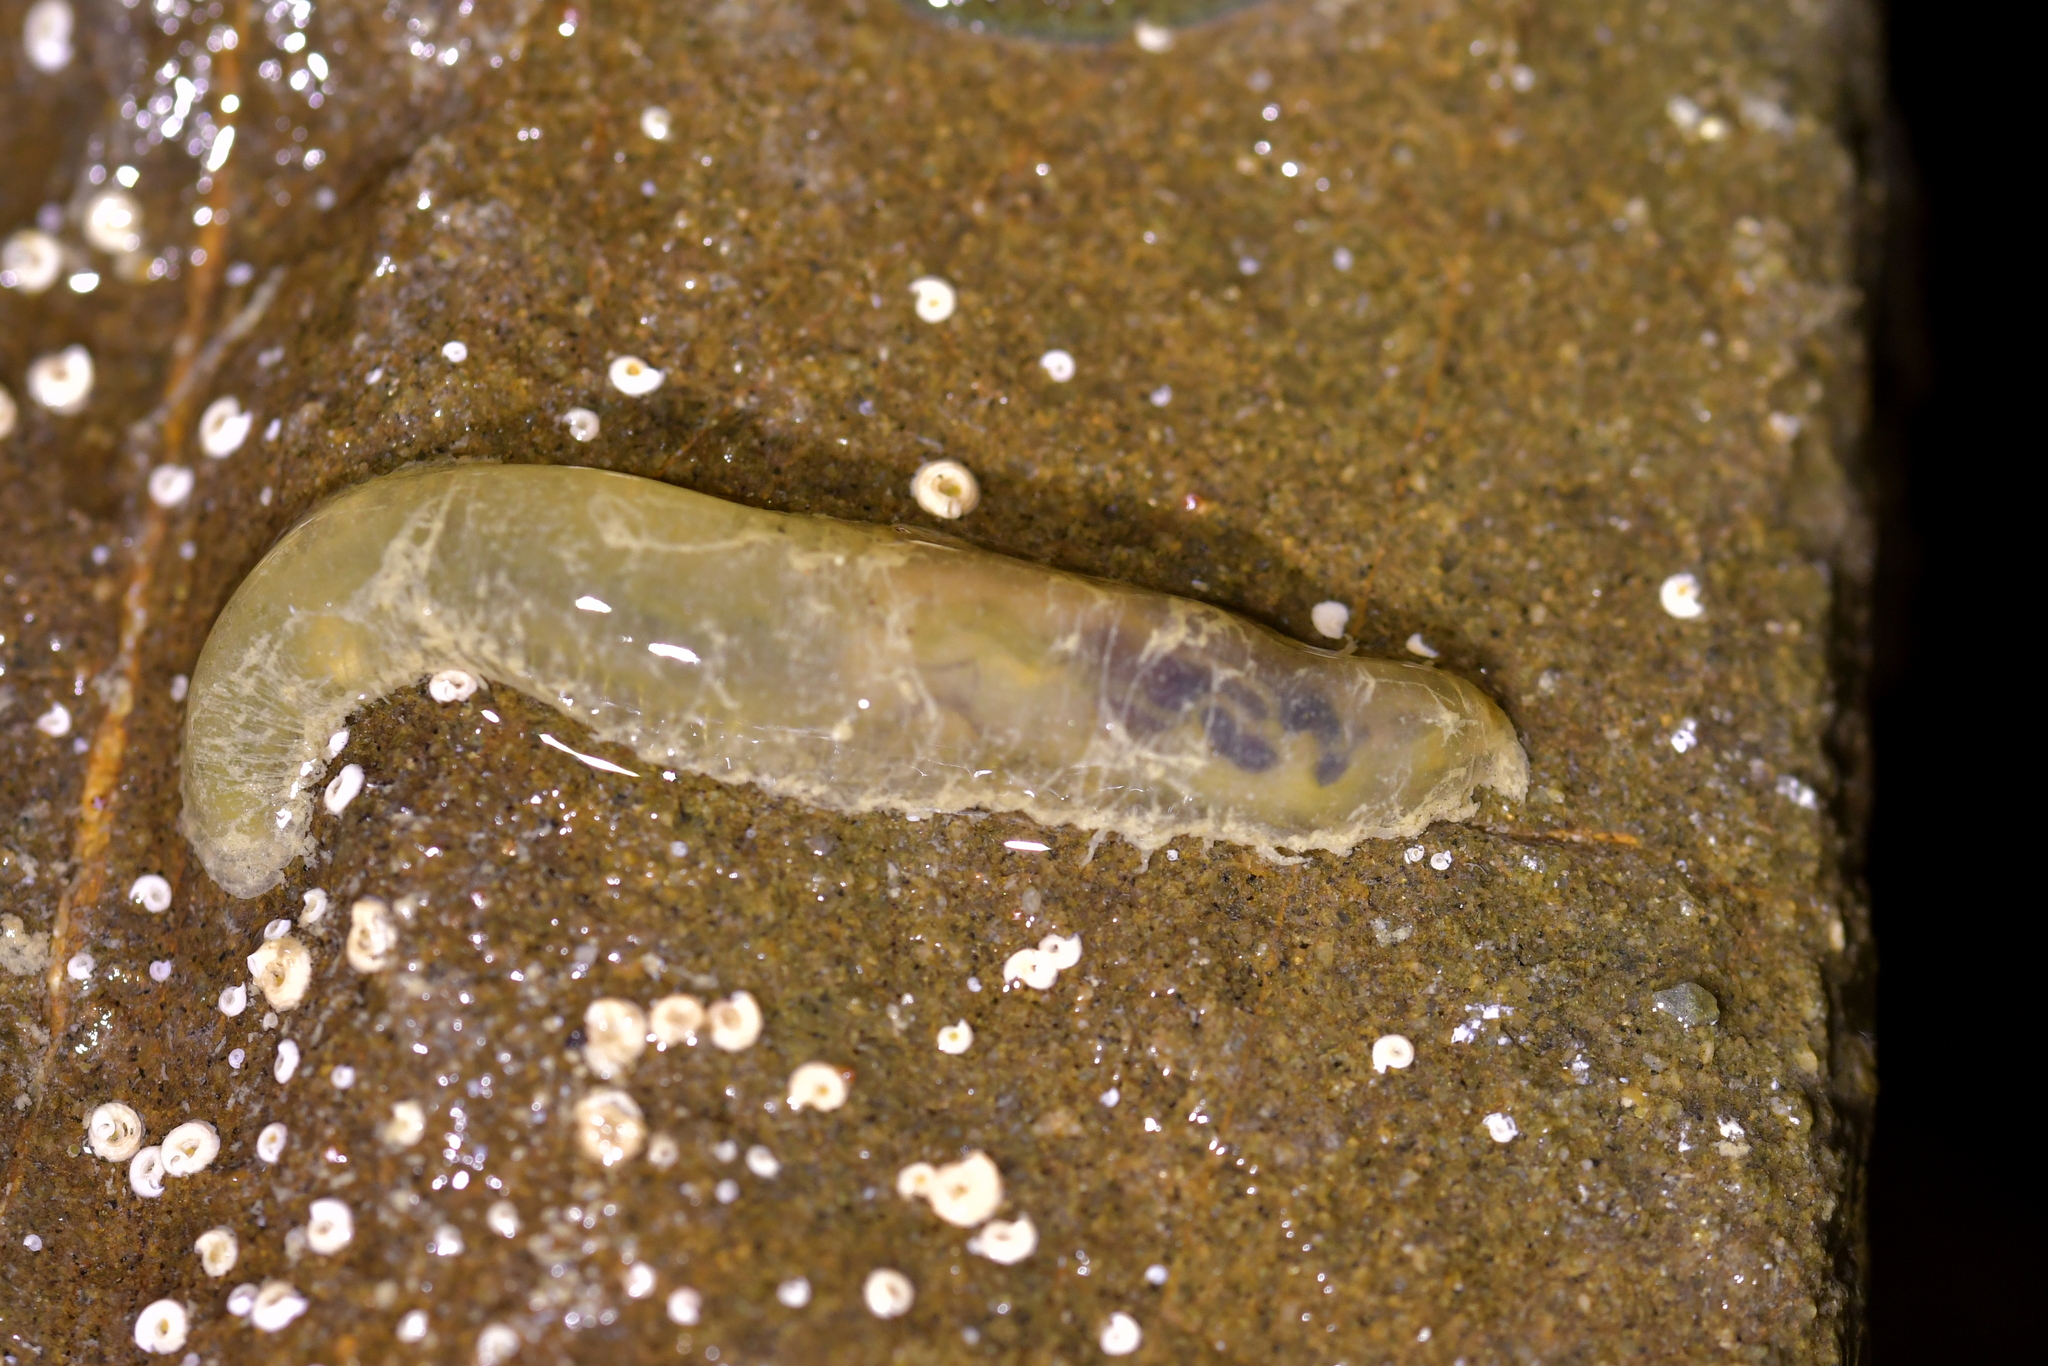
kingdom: Animalia
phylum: Annelida
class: Polychaeta
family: Flabelligeridae
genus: Flabelligera
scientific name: Flabelligera bicolor
